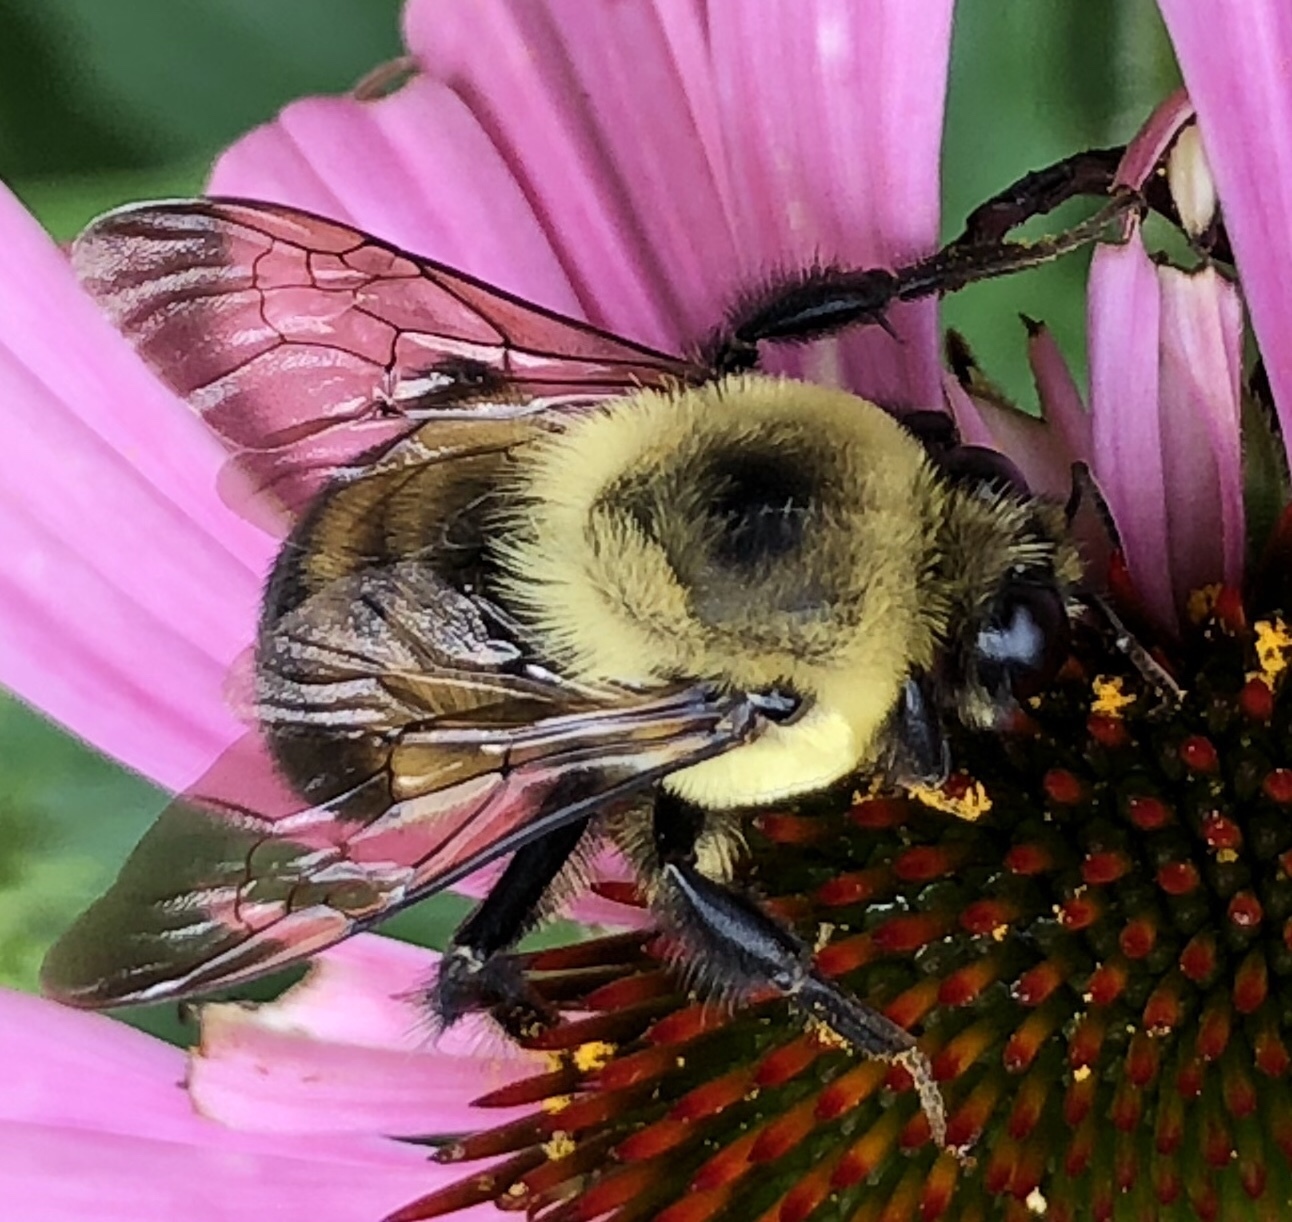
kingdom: Animalia
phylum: Arthropoda
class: Insecta
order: Hymenoptera
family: Apidae
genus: Bombus
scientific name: Bombus griseocollis
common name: Brown-belted bumble bee
